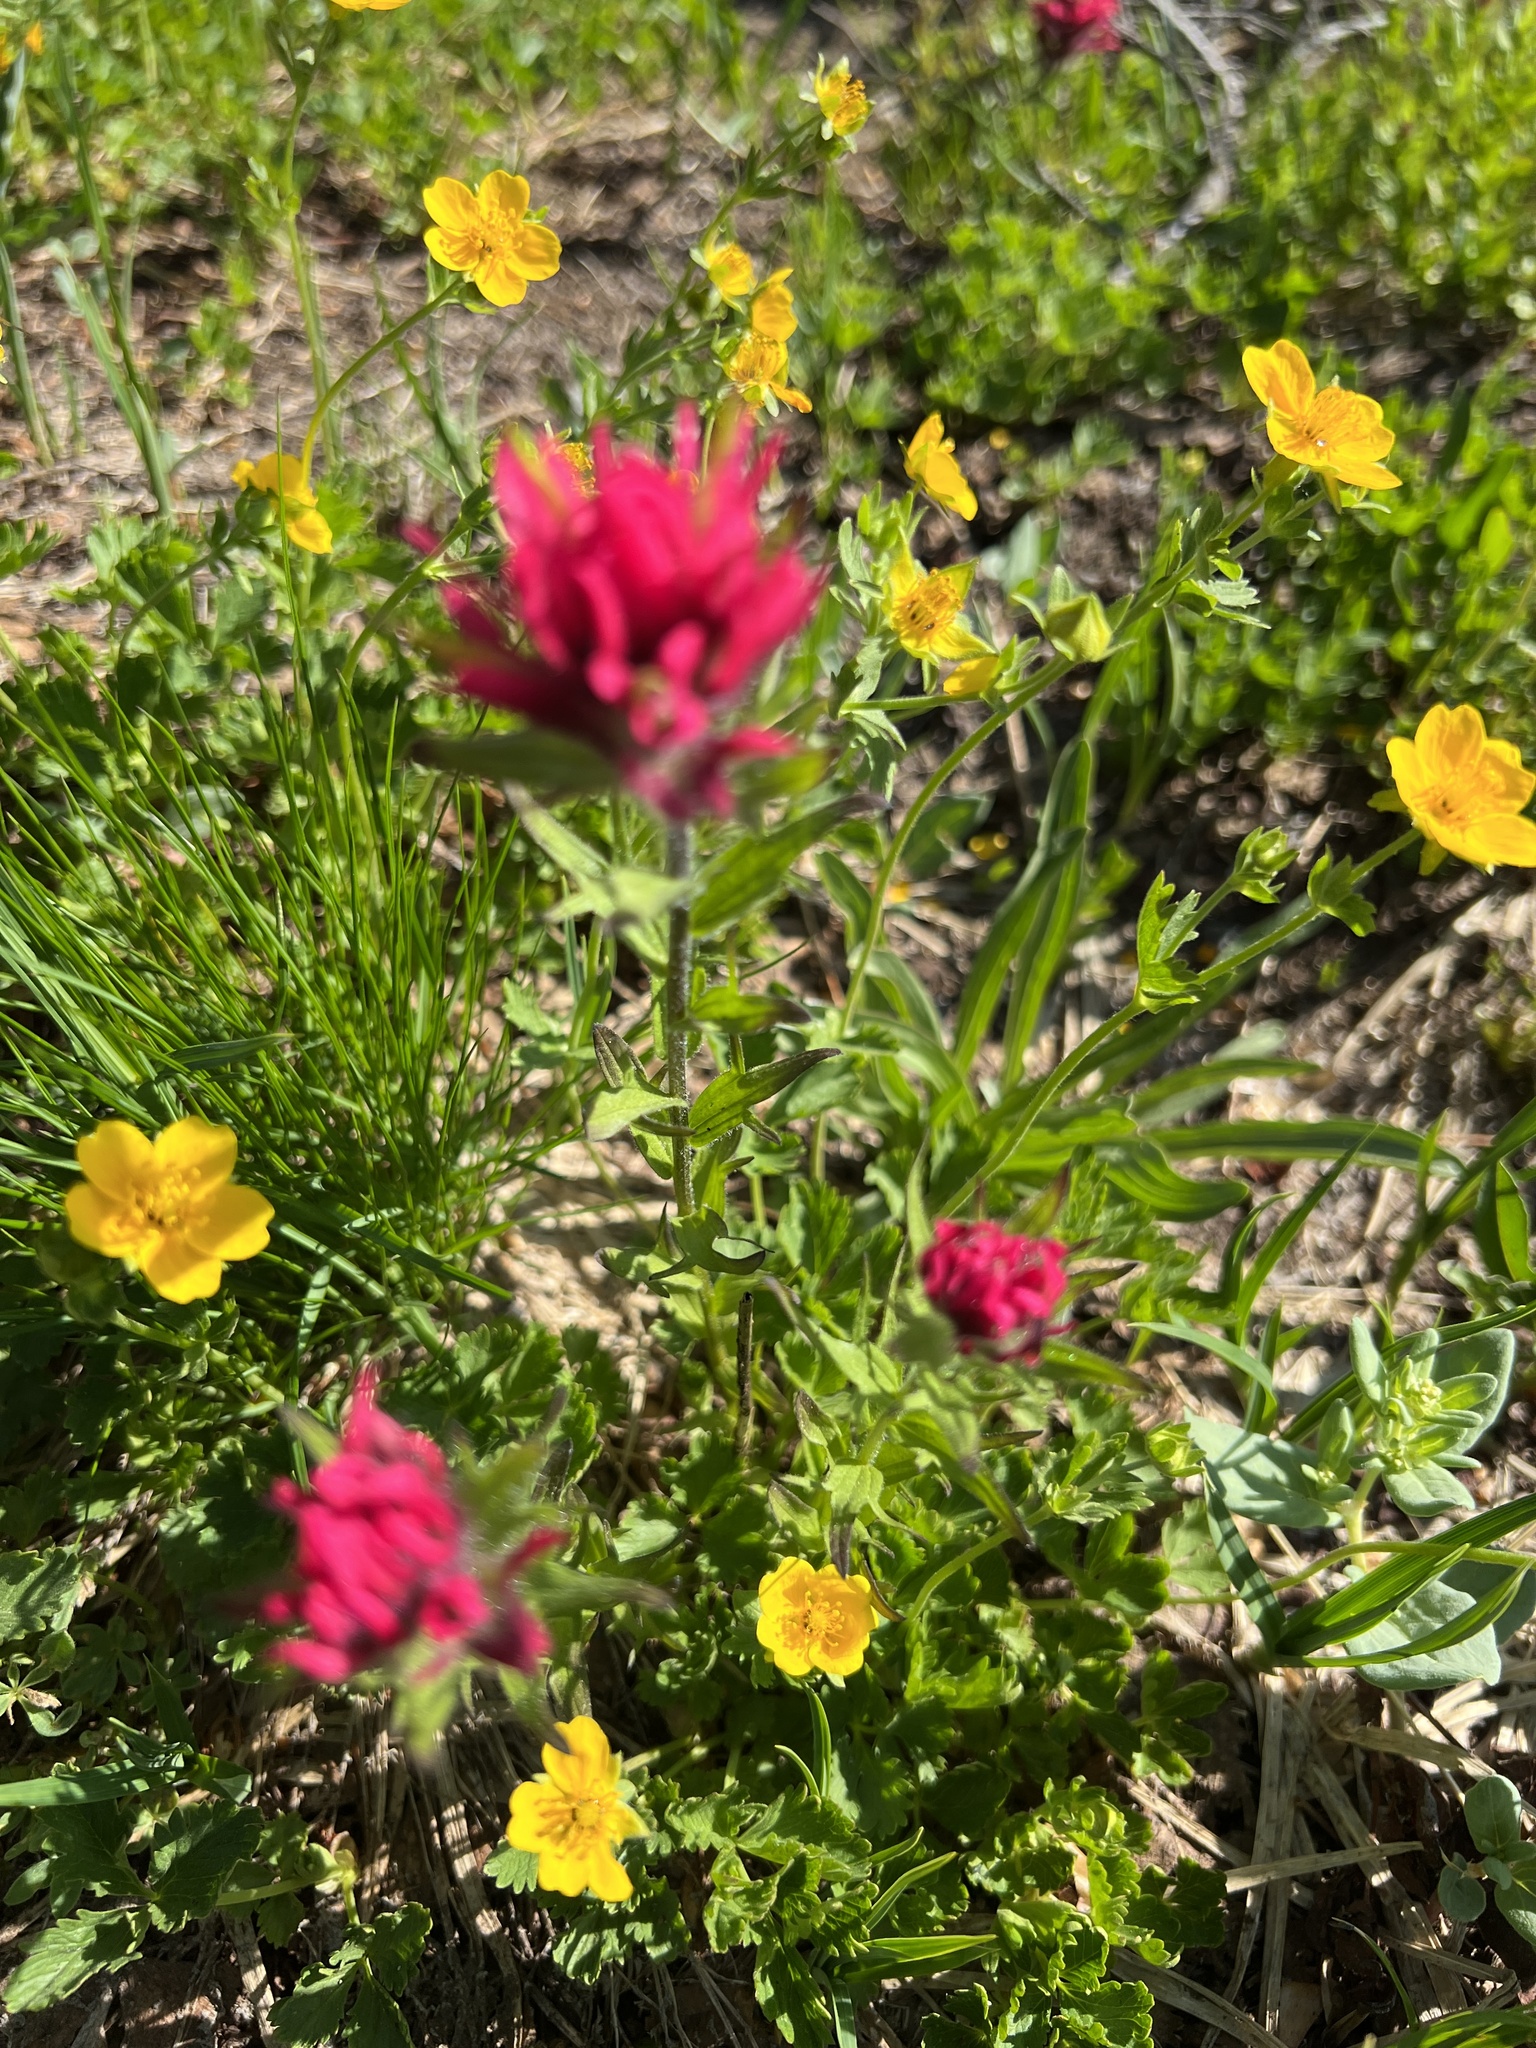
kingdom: Plantae
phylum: Tracheophyta
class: Magnoliopsida
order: Lamiales
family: Orobanchaceae
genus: Castilleja
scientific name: Castilleja parviflora
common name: Mountain paintbrush
